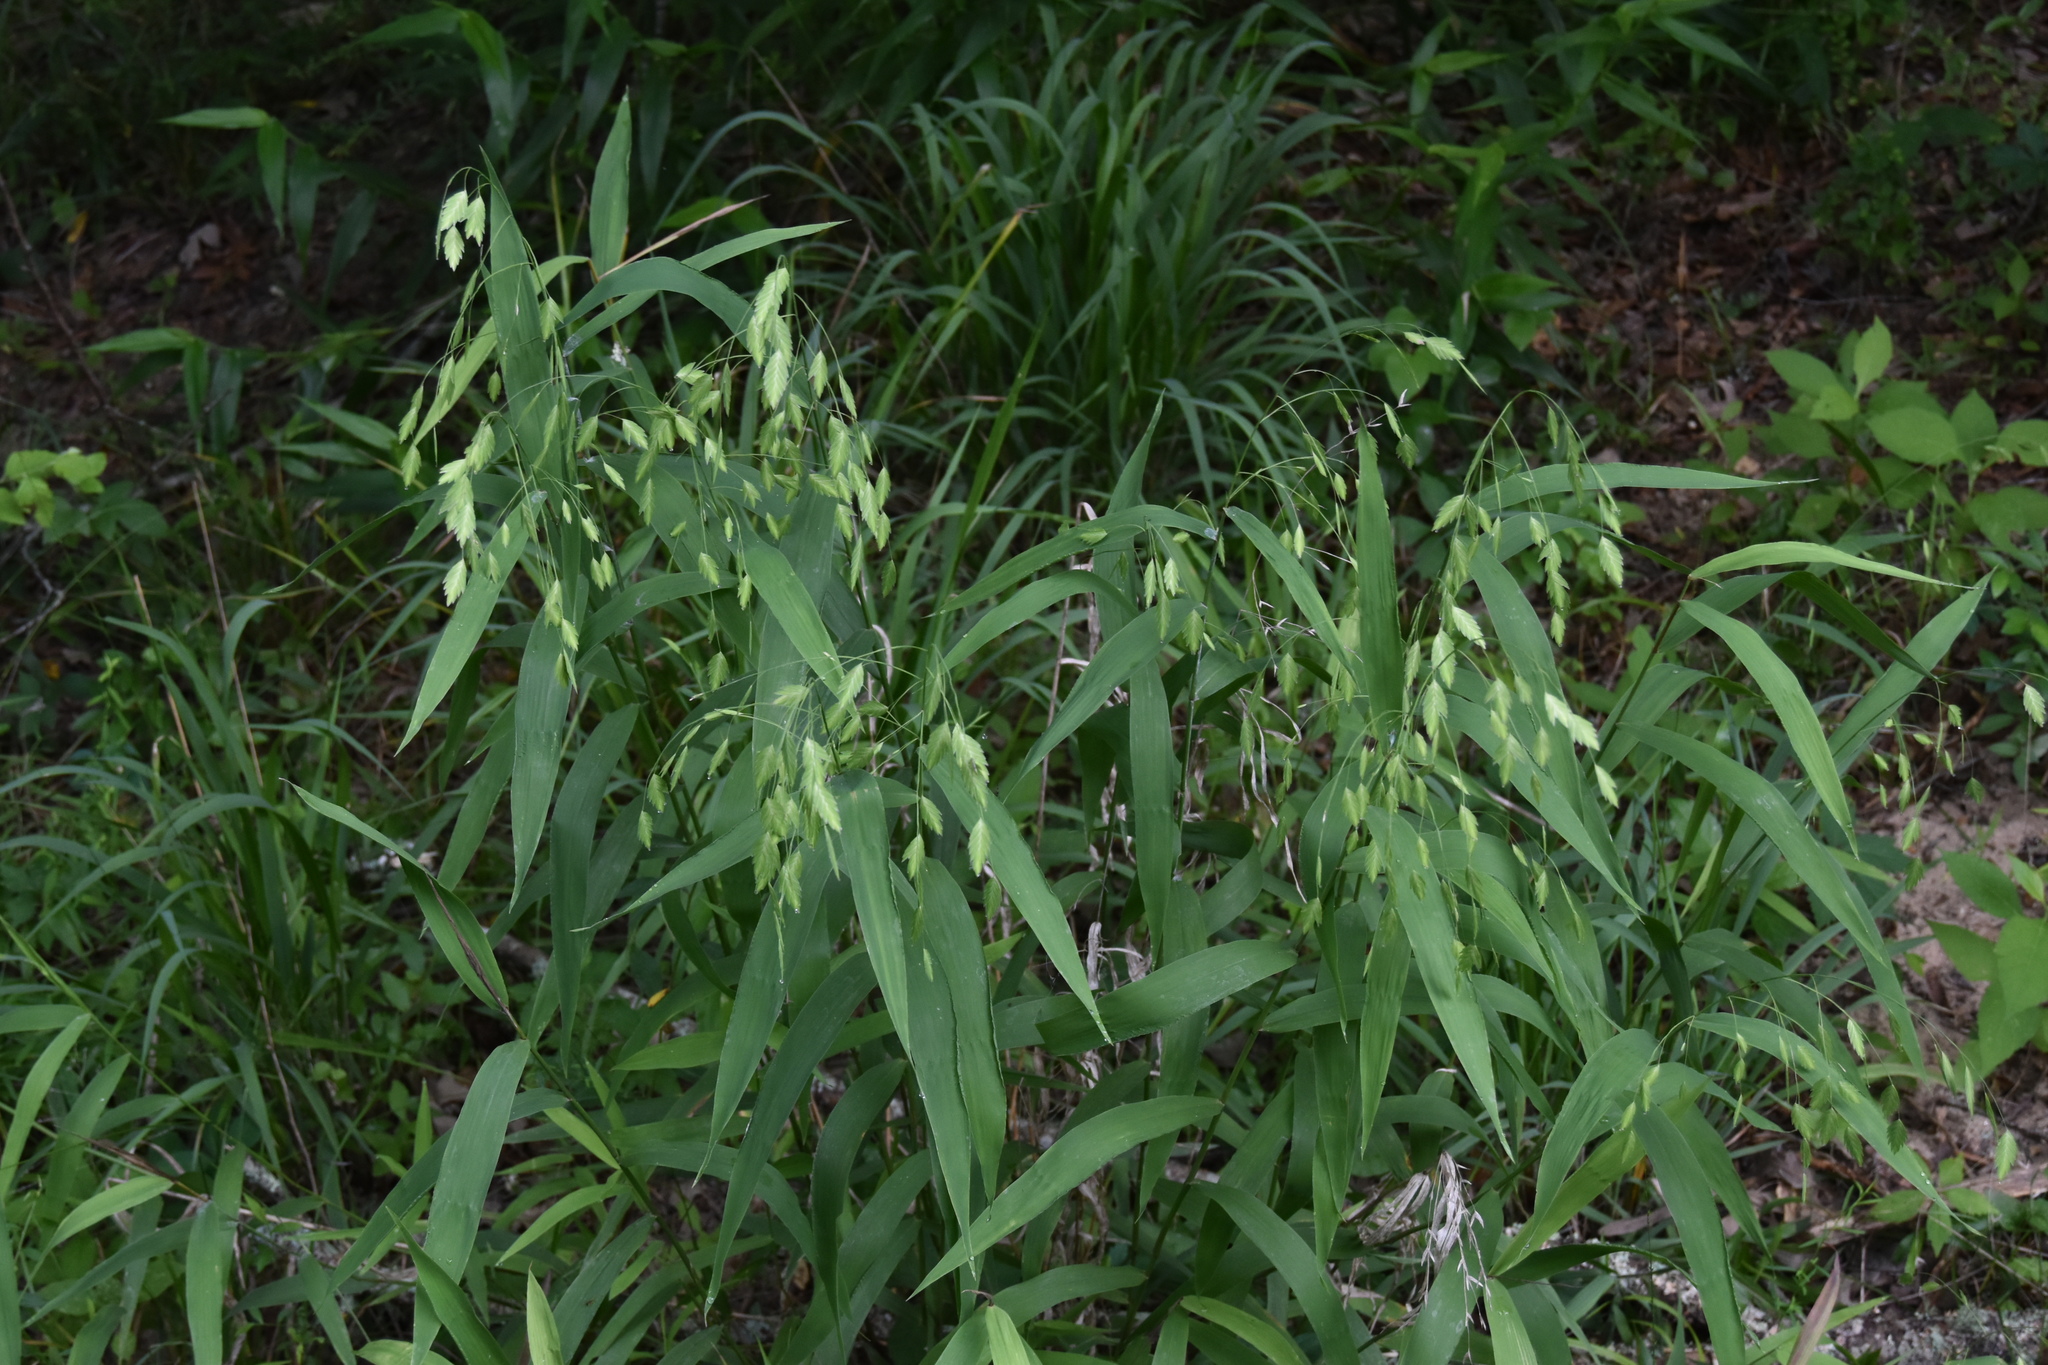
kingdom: Plantae
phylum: Tracheophyta
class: Liliopsida
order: Poales
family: Poaceae
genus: Chasmanthium
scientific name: Chasmanthium latifolium
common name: Broad-leaved chasmanthium
